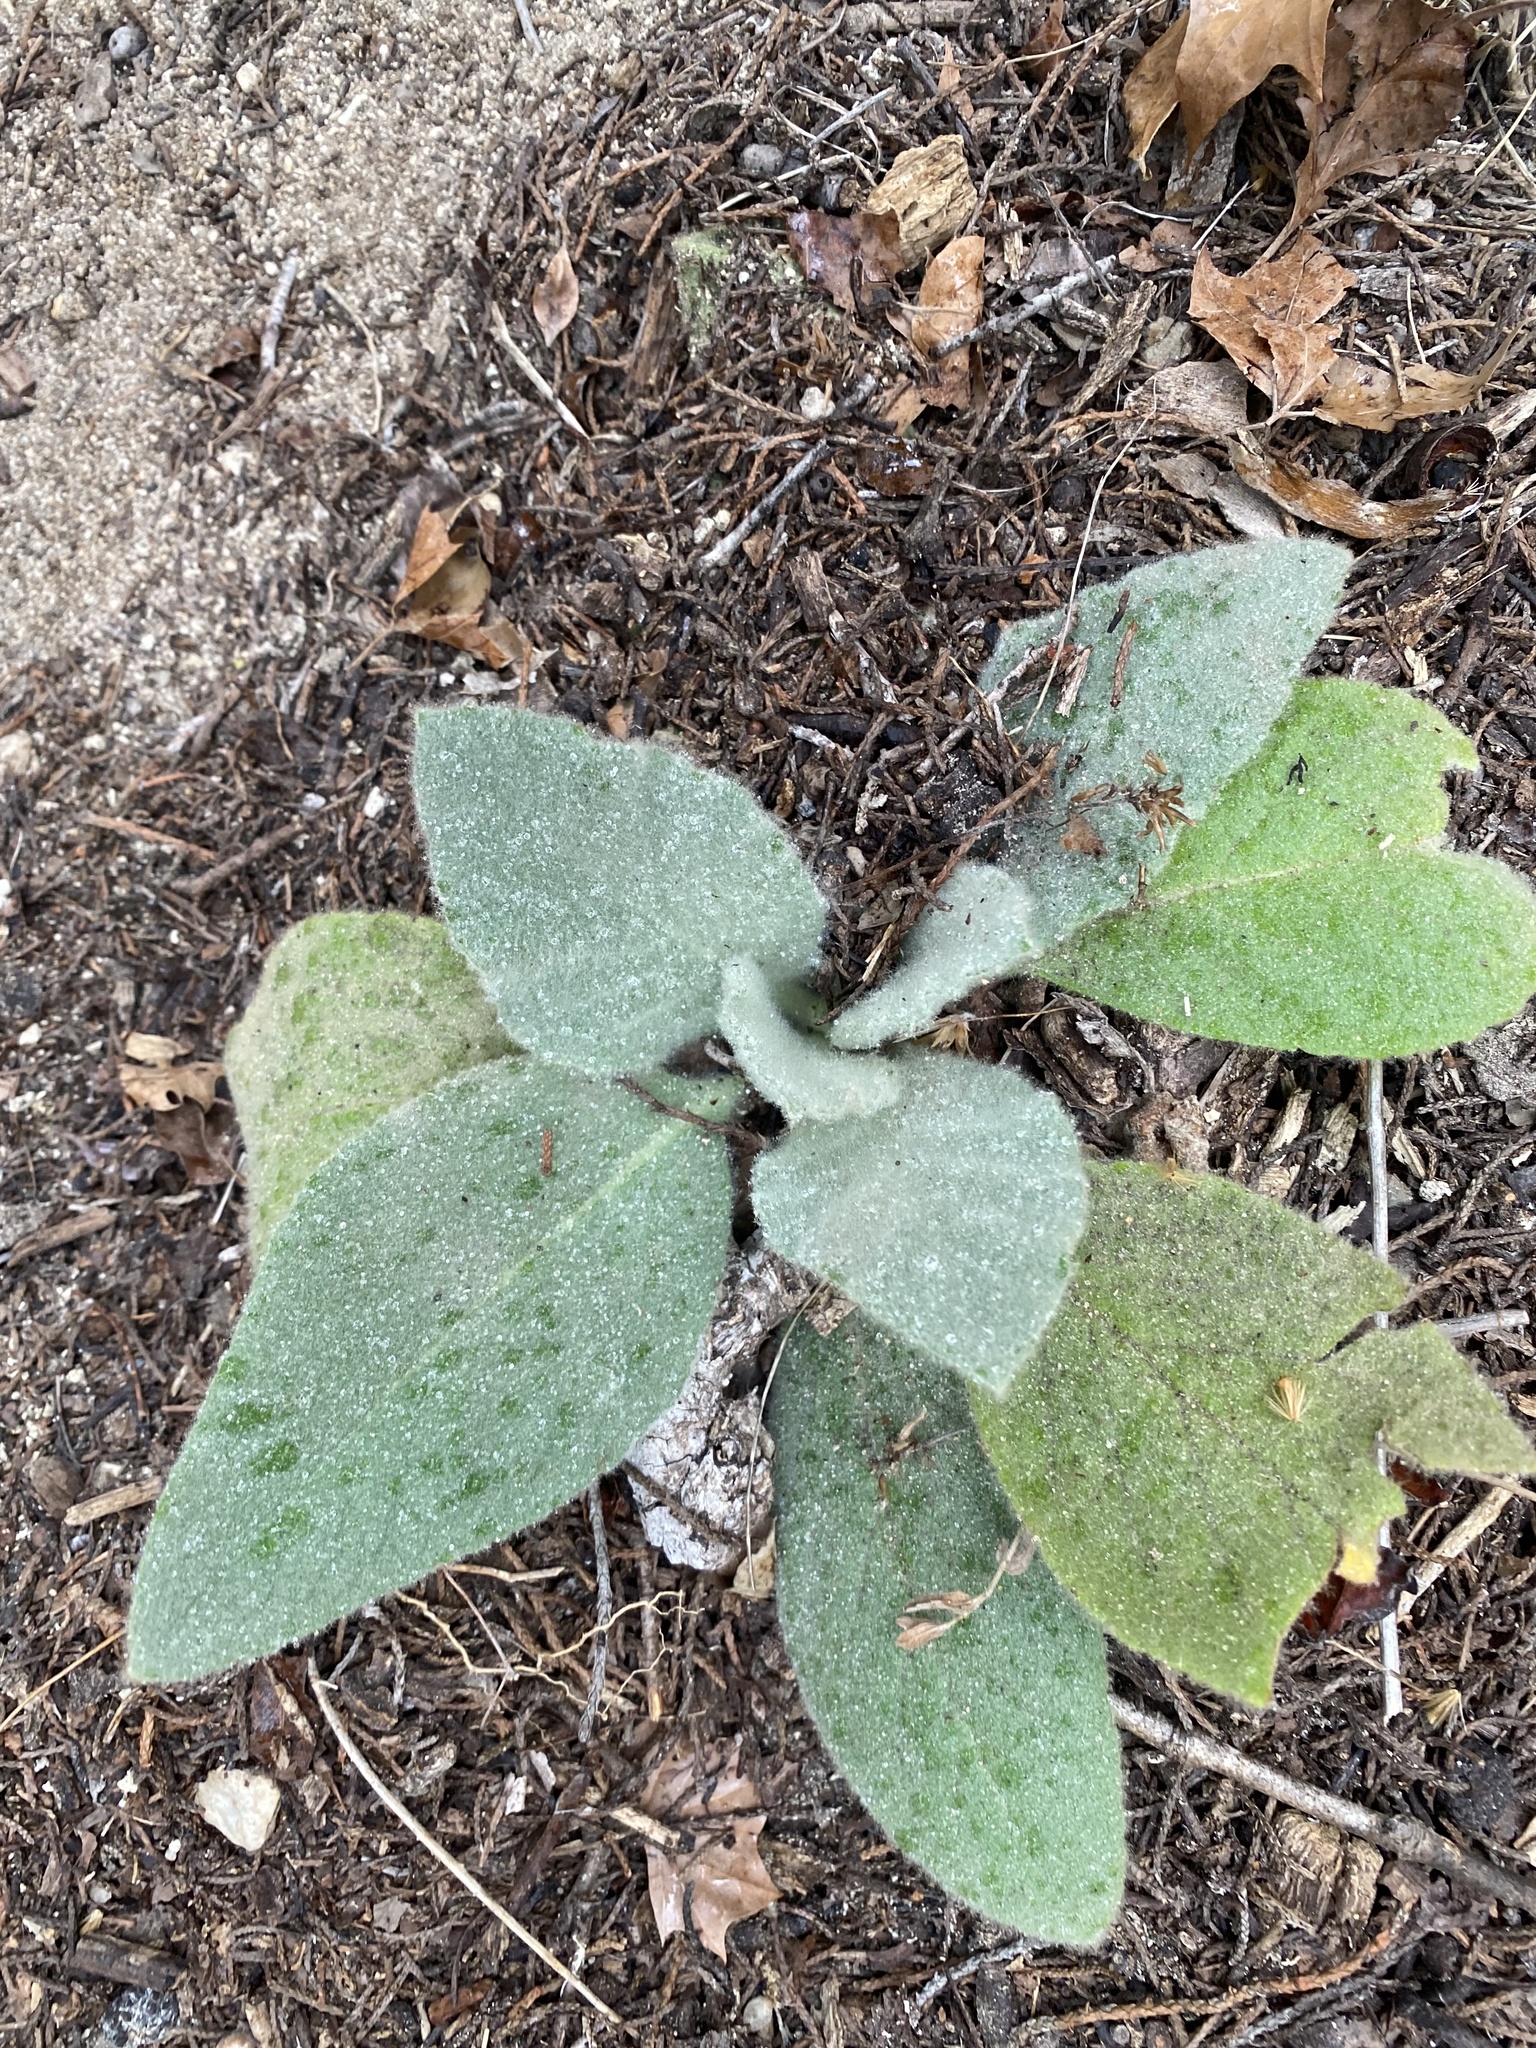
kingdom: Plantae
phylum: Tracheophyta
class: Magnoliopsida
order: Lamiales
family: Scrophulariaceae
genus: Verbascum
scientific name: Verbascum thapsus
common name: Common mullein
